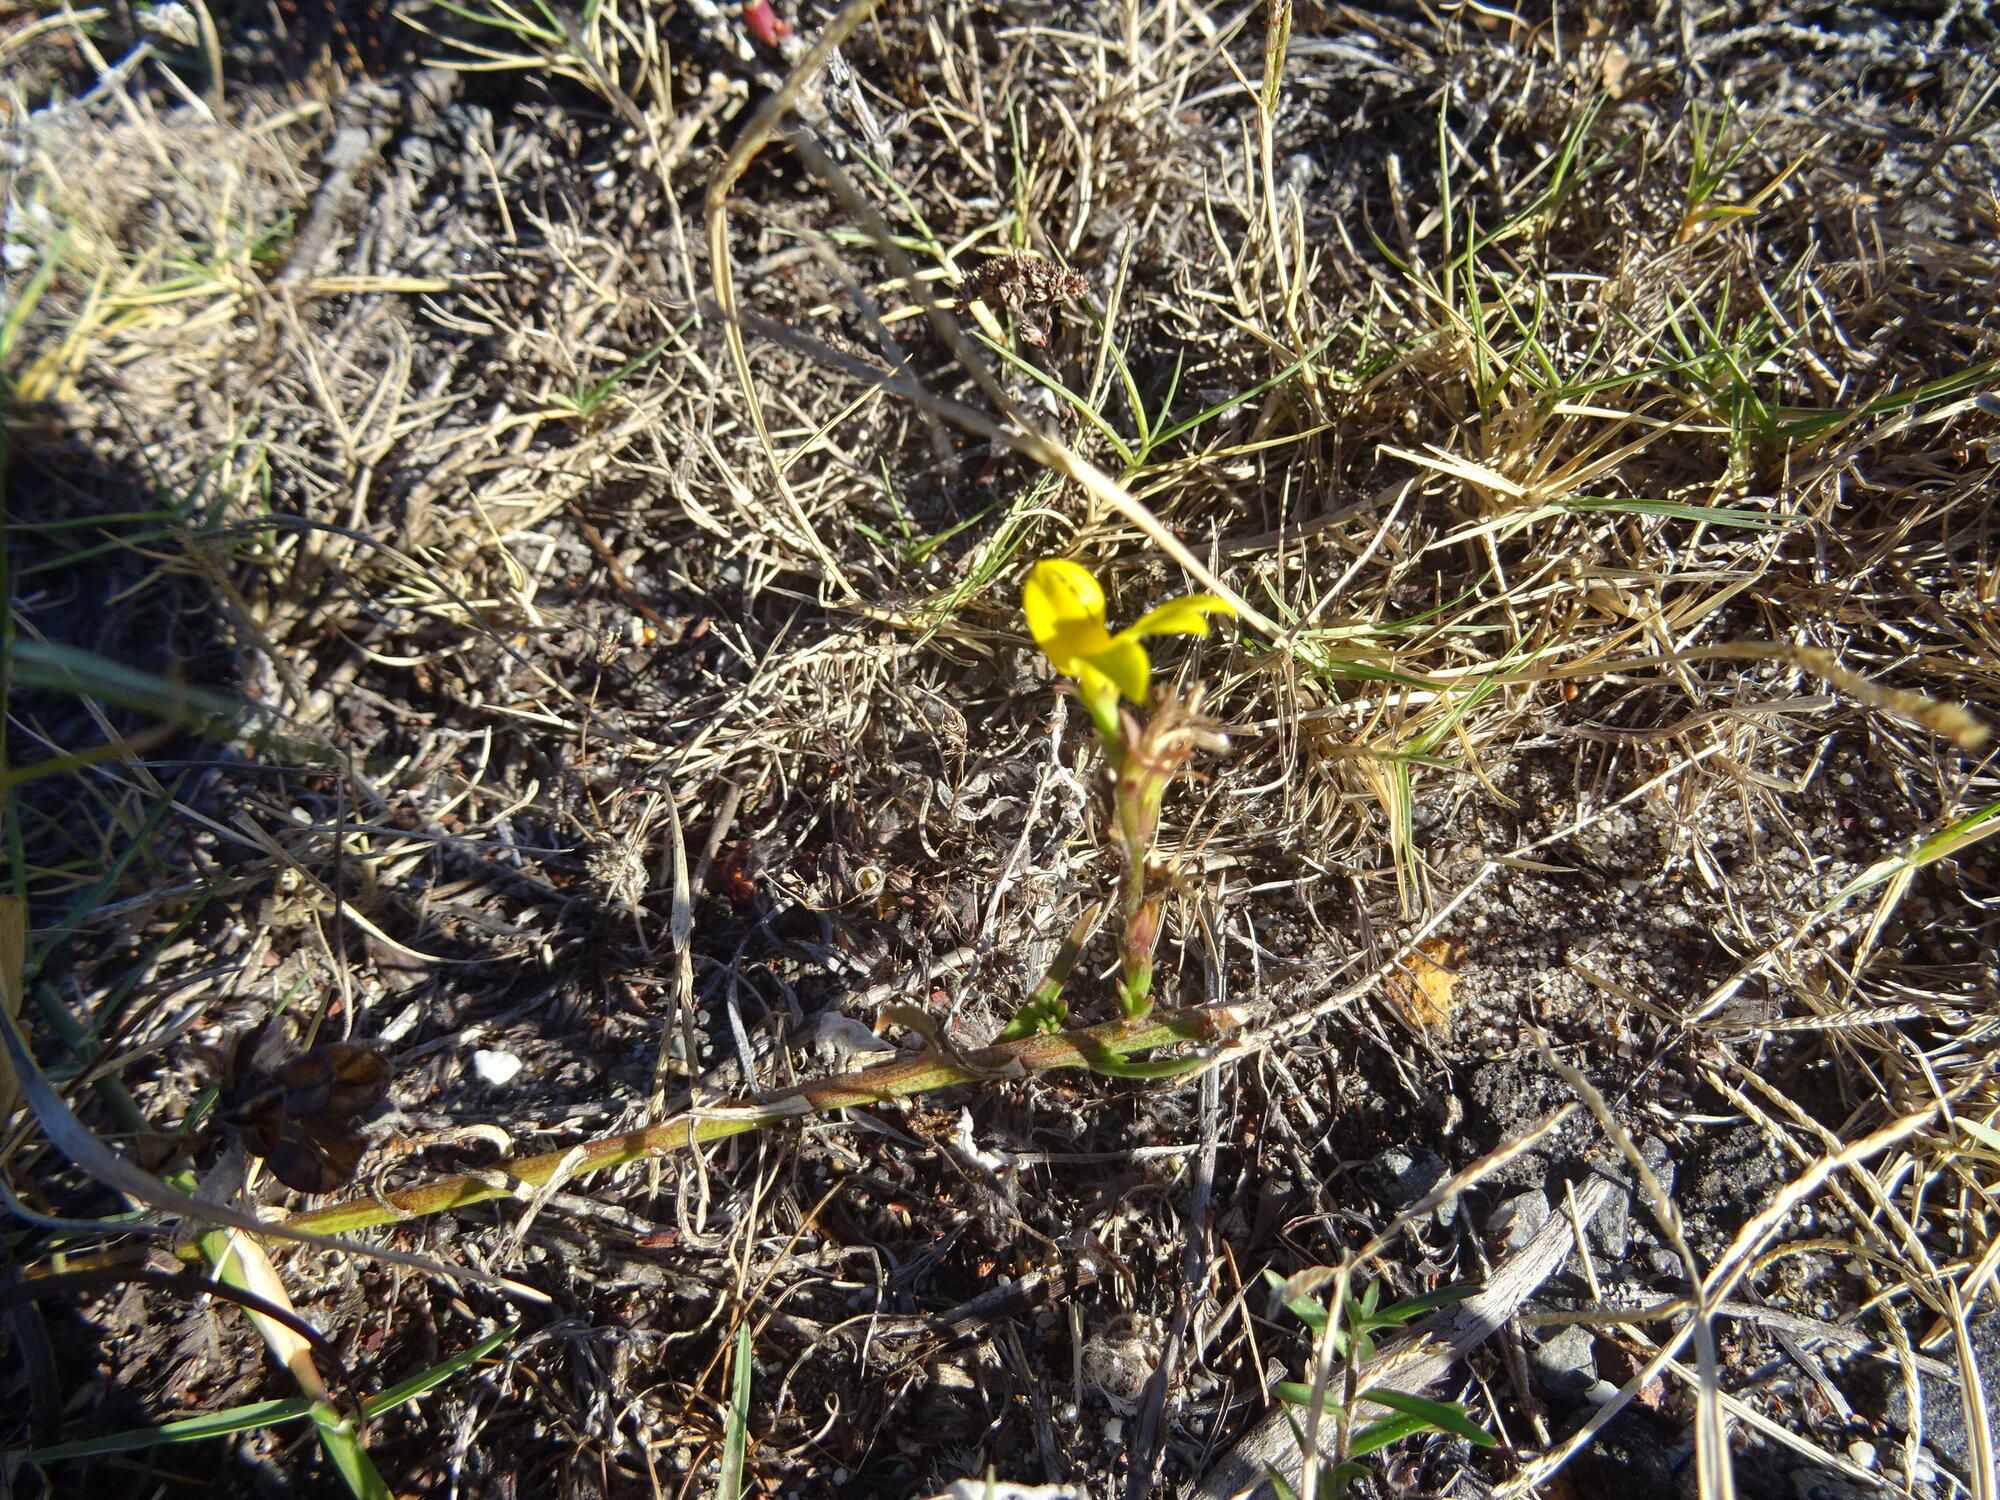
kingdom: Plantae
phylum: Tracheophyta
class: Magnoliopsida
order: Asterales
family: Campanulaceae
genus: Monopsis
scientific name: Monopsis lutea
